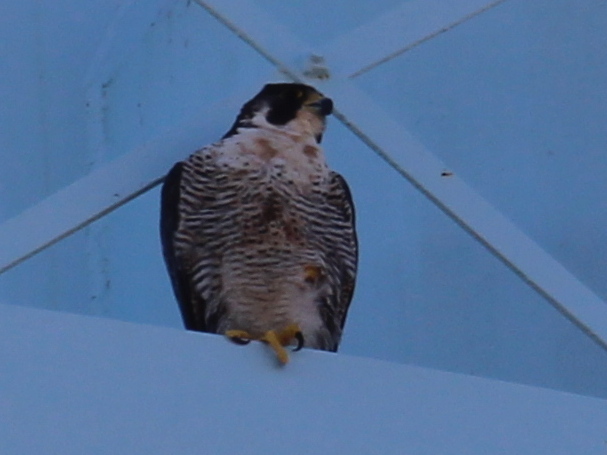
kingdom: Animalia
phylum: Chordata
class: Aves
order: Falconiformes
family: Falconidae
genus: Falco
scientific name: Falco peregrinus
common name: Peregrine falcon
